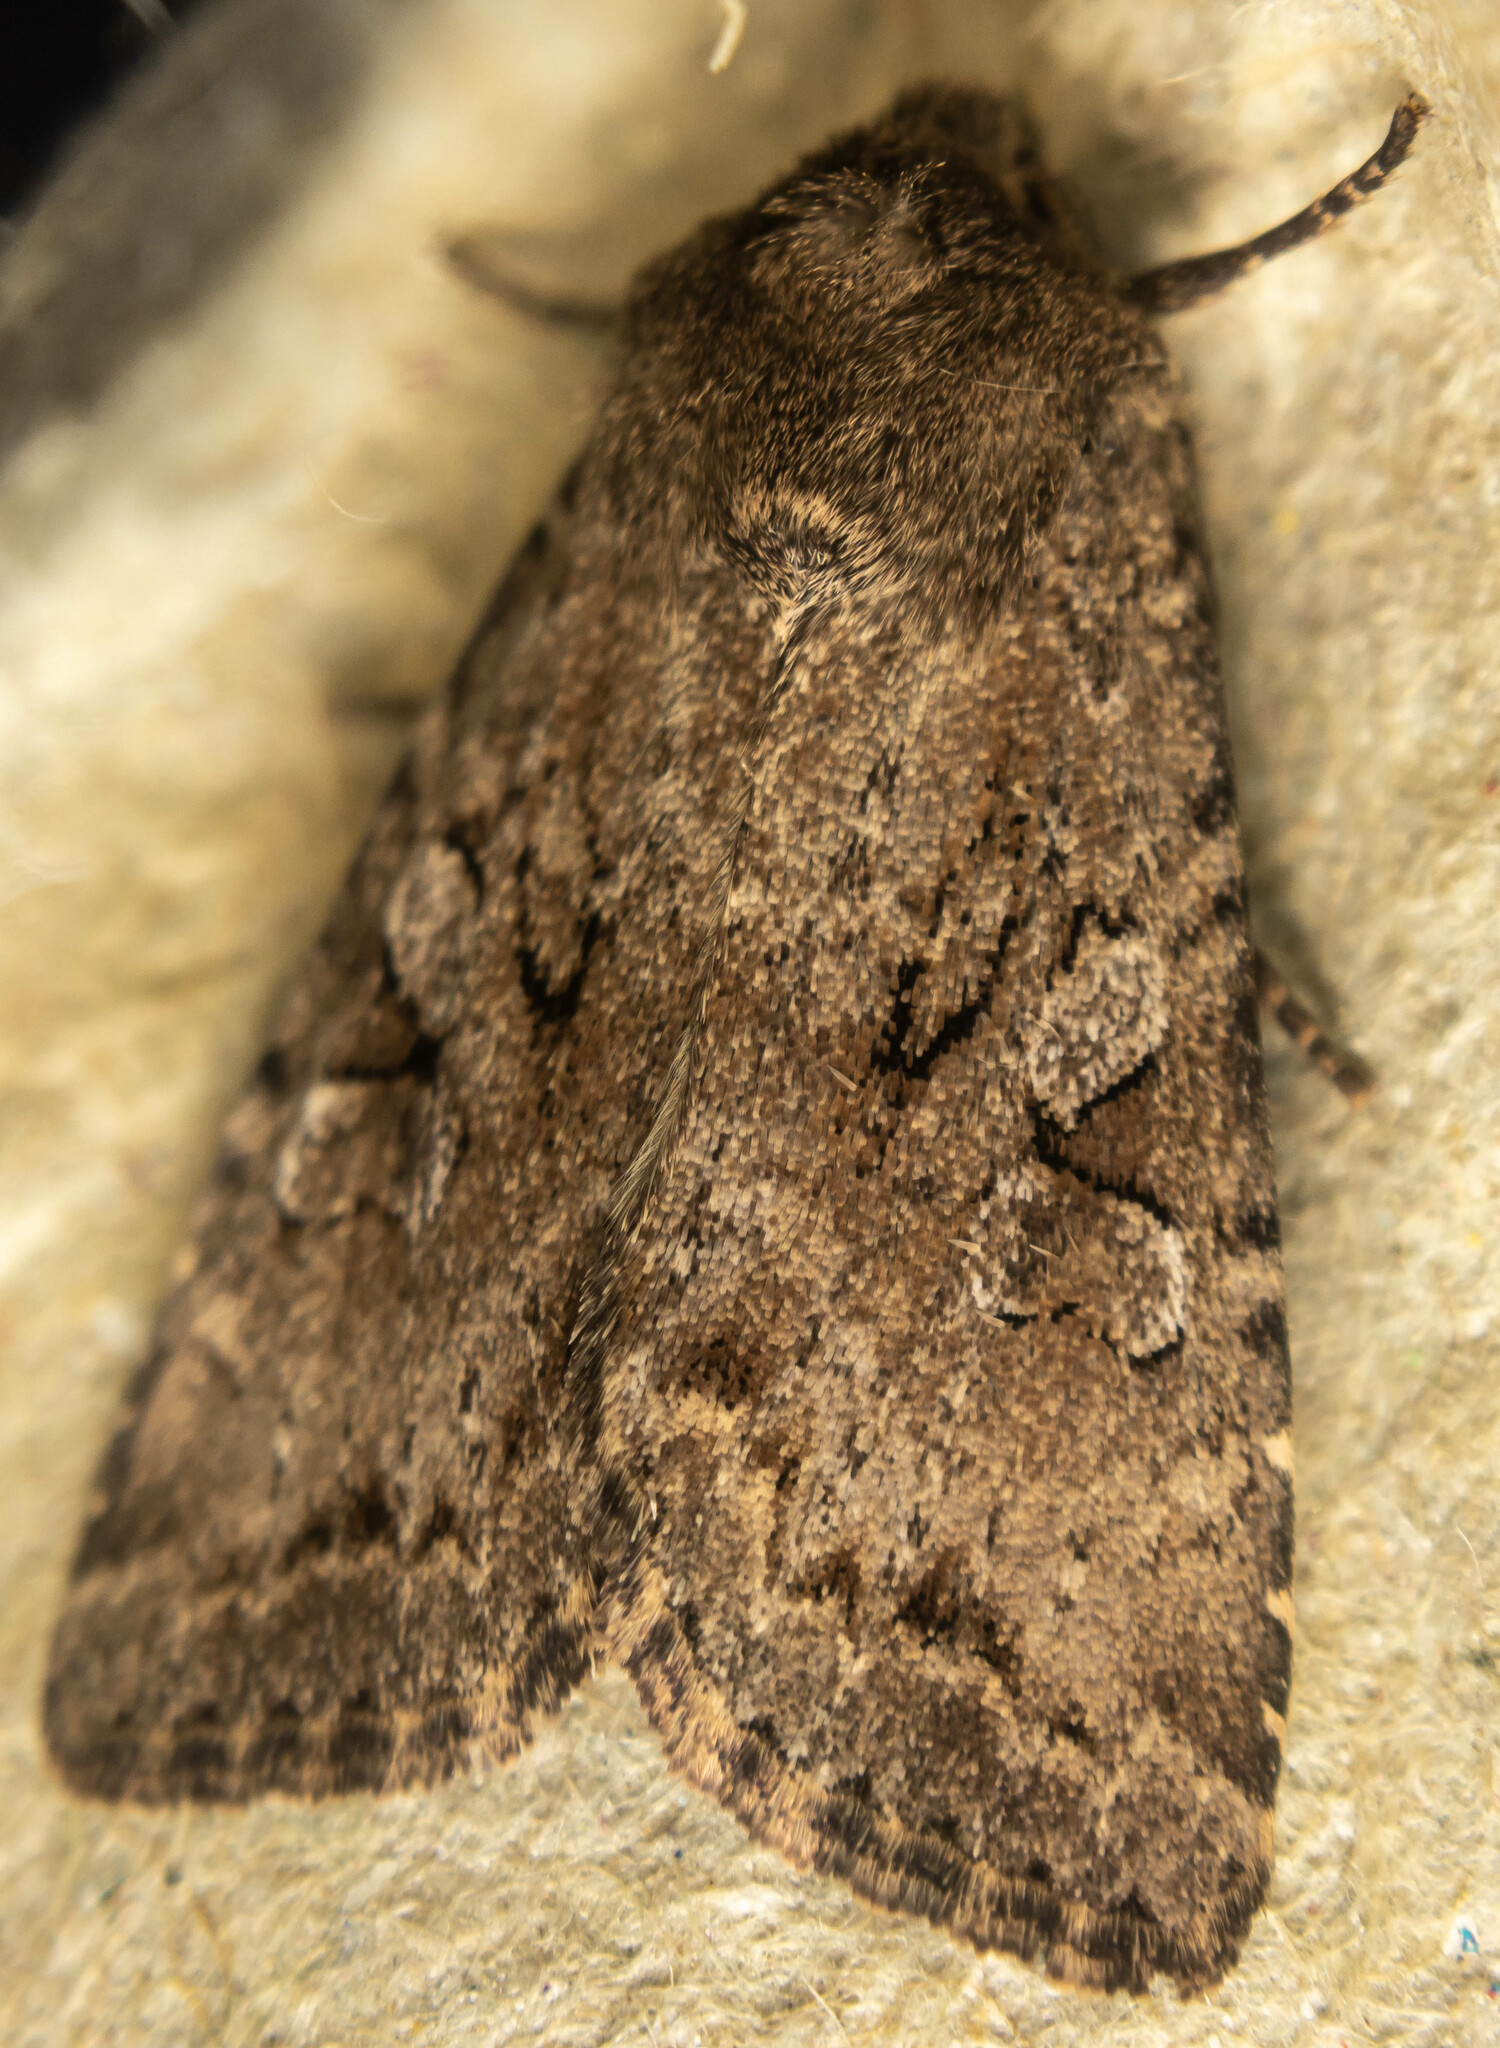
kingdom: Animalia
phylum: Arthropoda
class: Insecta
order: Lepidoptera
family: Noctuidae
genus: Apterogenum
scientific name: Apterogenum ypsillon
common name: Dingy shears
